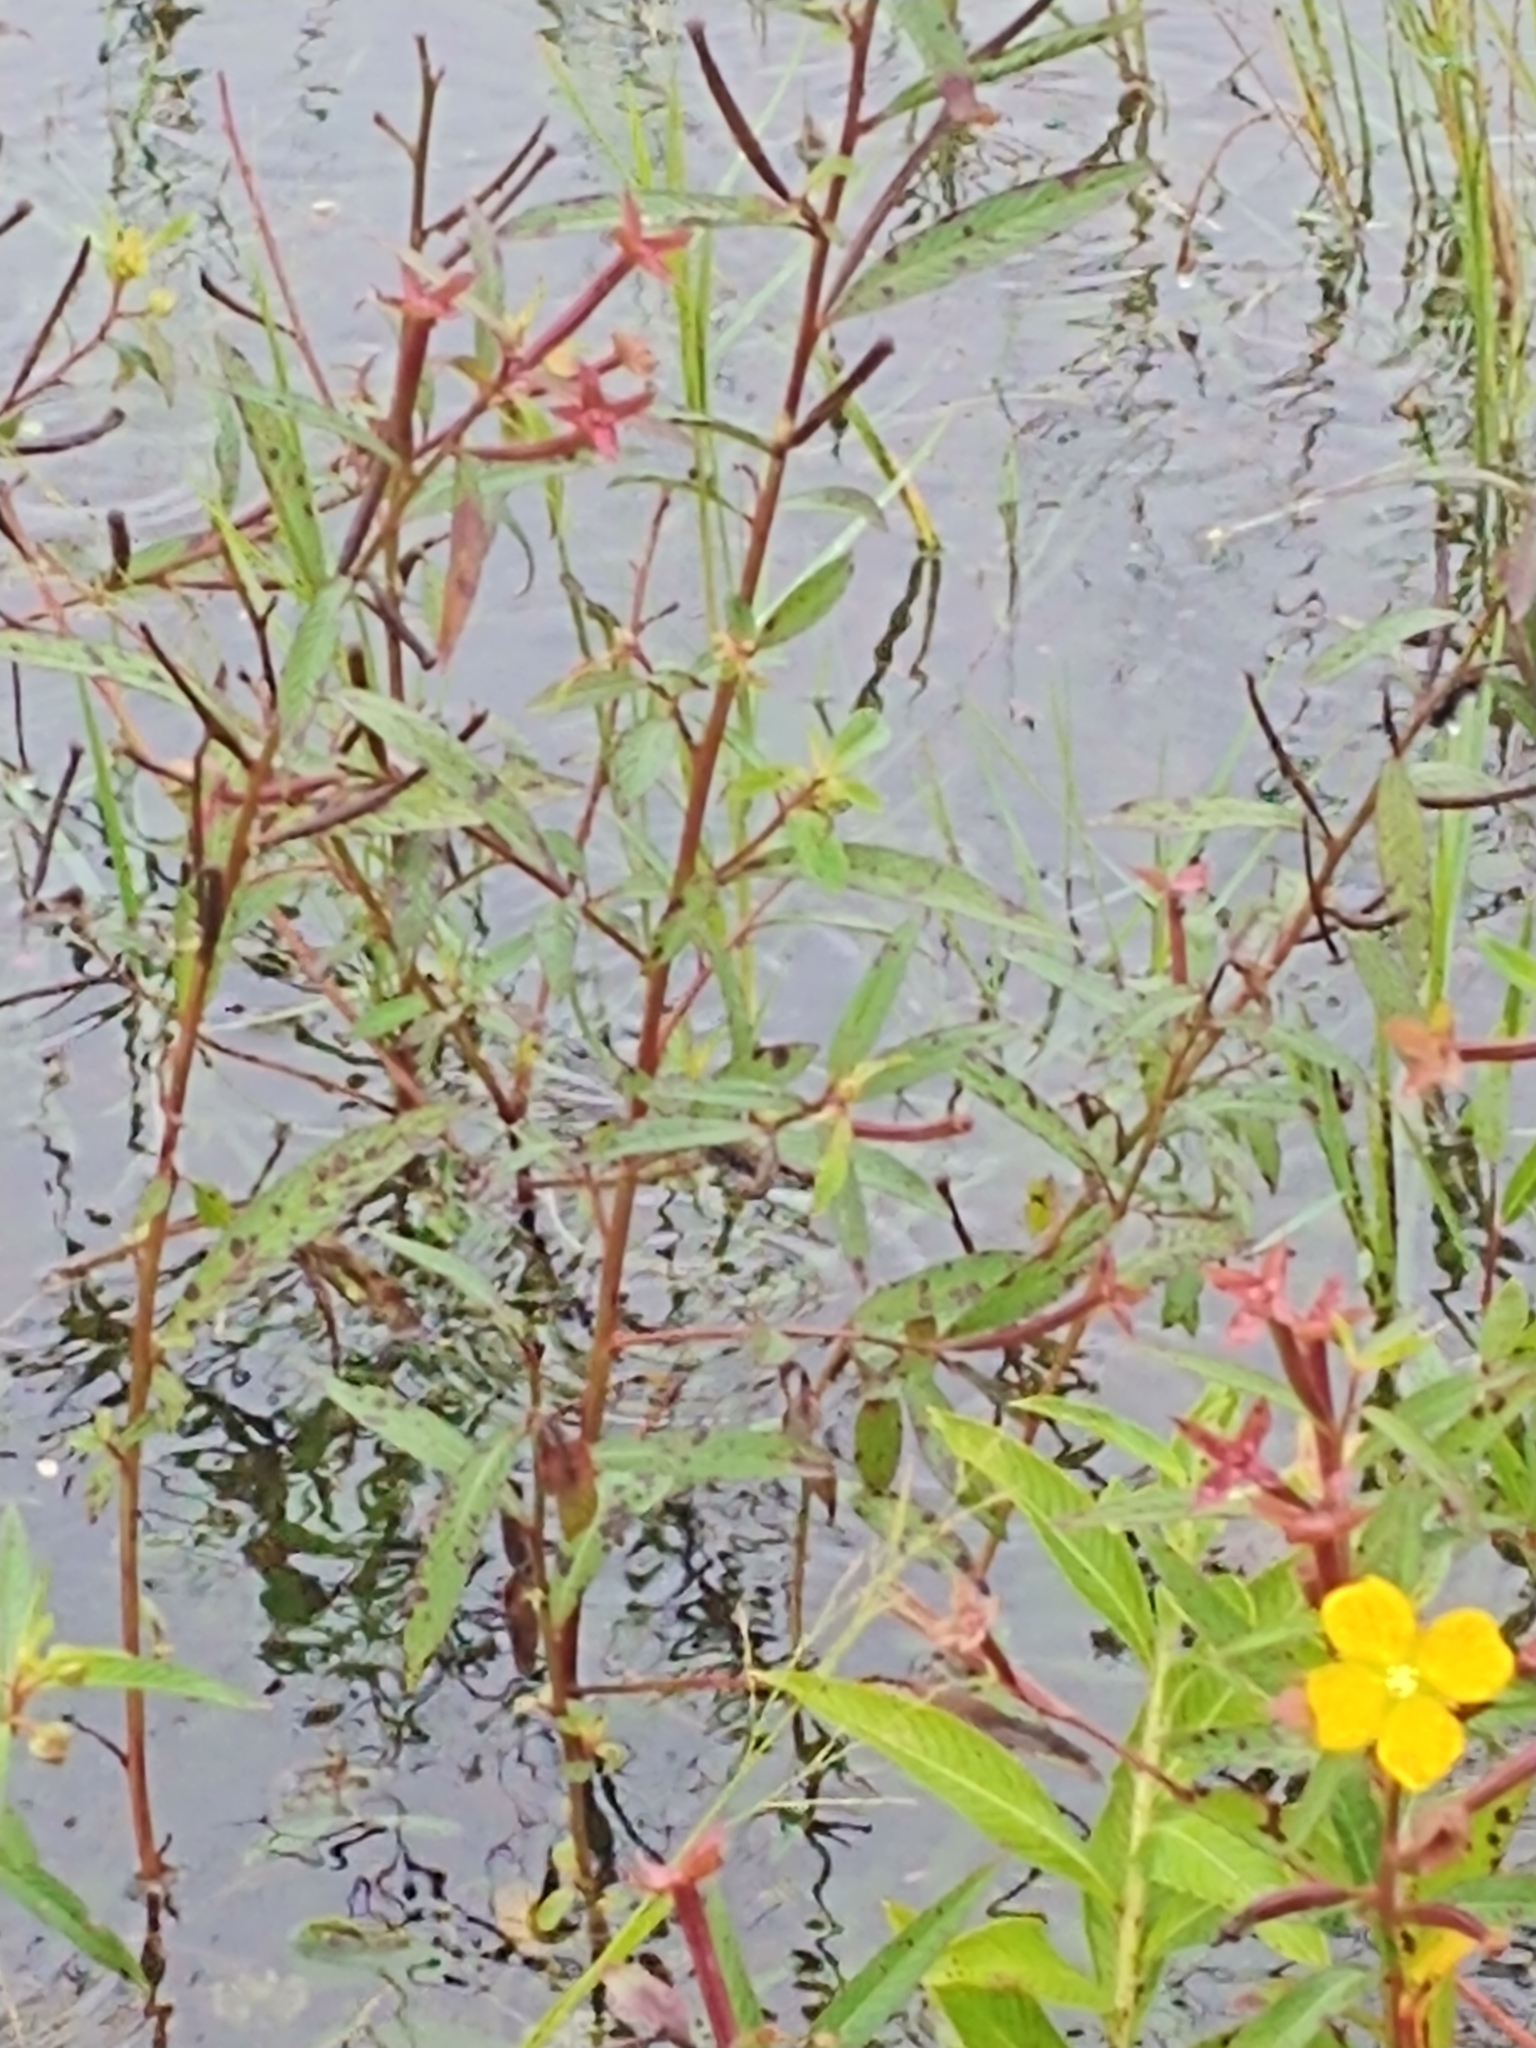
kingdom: Plantae
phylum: Tracheophyta
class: Magnoliopsida
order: Myrtales
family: Onagraceae
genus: Ludwigia
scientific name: Ludwigia octovalvis
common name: Water-primrose
